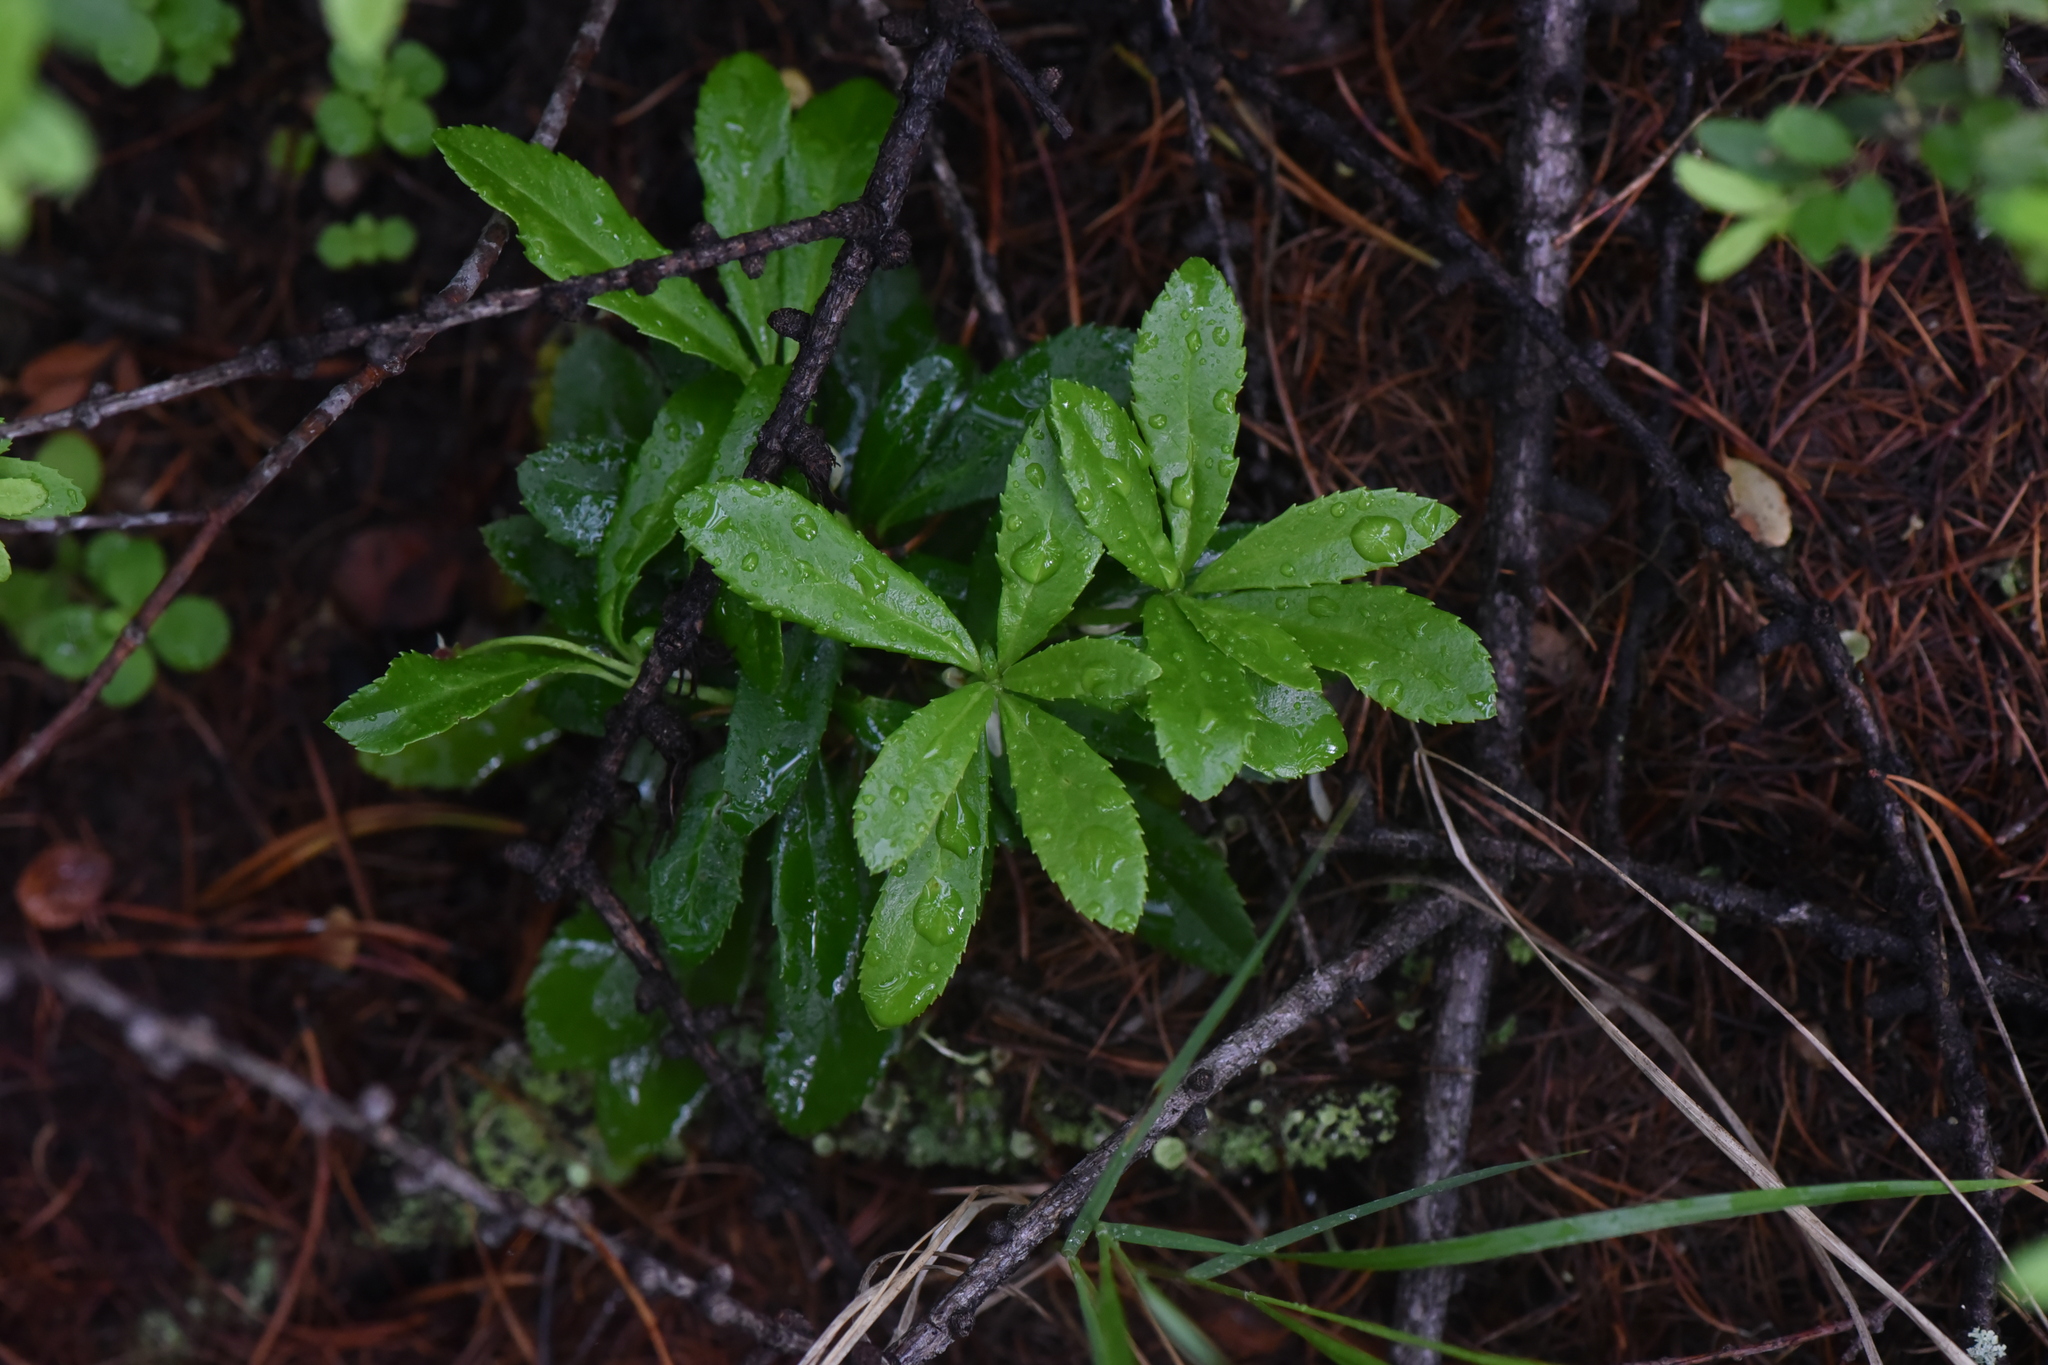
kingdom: Plantae
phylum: Tracheophyta
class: Magnoliopsida
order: Ericales
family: Ericaceae
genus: Chimaphila
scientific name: Chimaphila umbellata
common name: Pipsissewa
